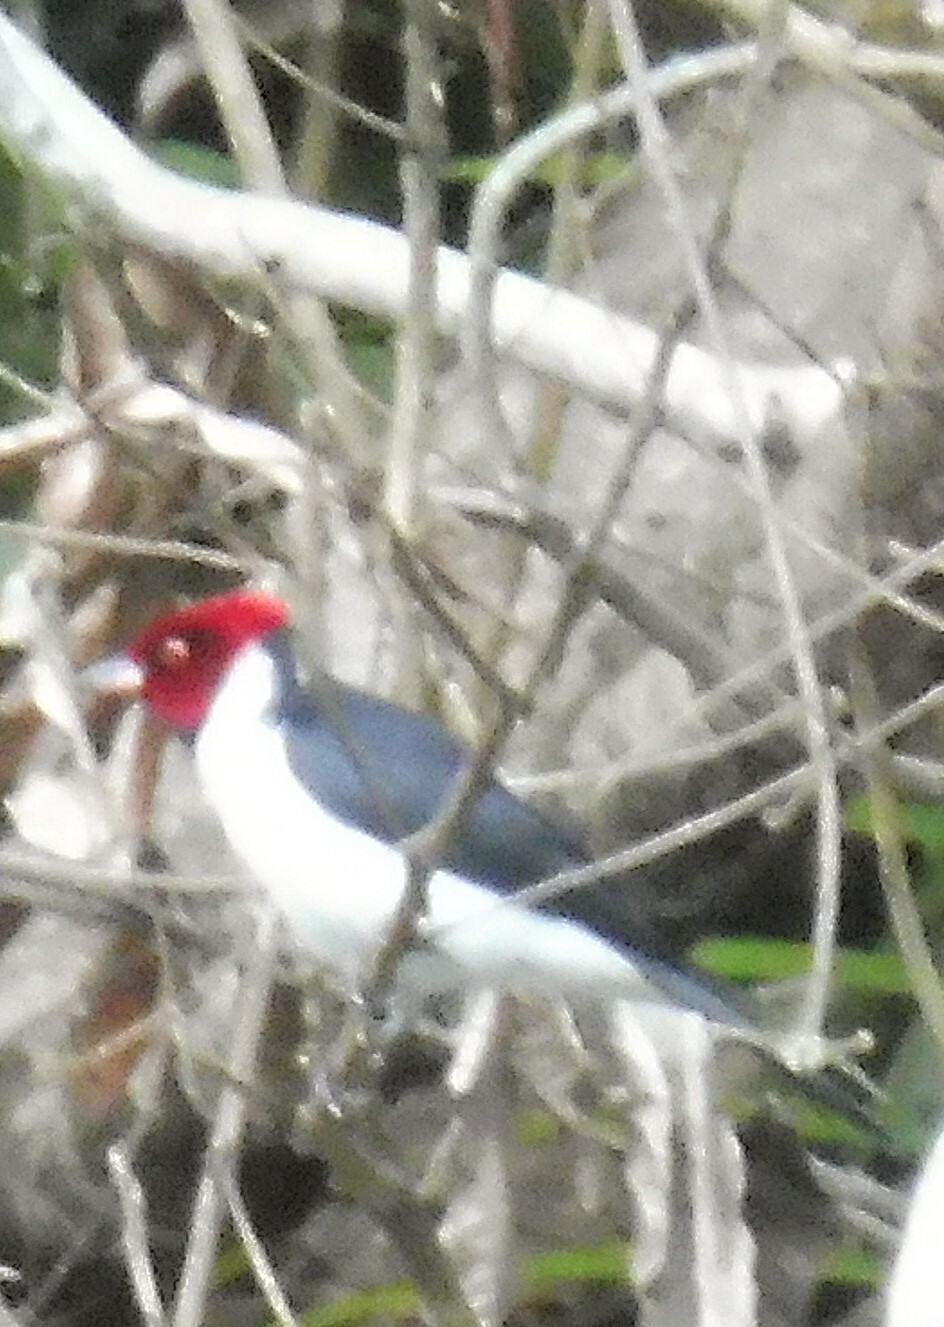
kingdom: Animalia
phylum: Chordata
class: Aves
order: Passeriformes
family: Thraupidae
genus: Paroaria
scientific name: Paroaria gularis
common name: Red-capped cardinal
